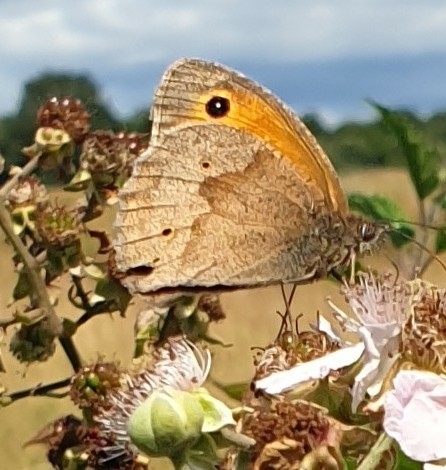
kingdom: Animalia
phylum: Arthropoda
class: Insecta
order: Lepidoptera
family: Nymphalidae
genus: Maniola
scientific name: Maniola jurtina
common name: Meadow brown
